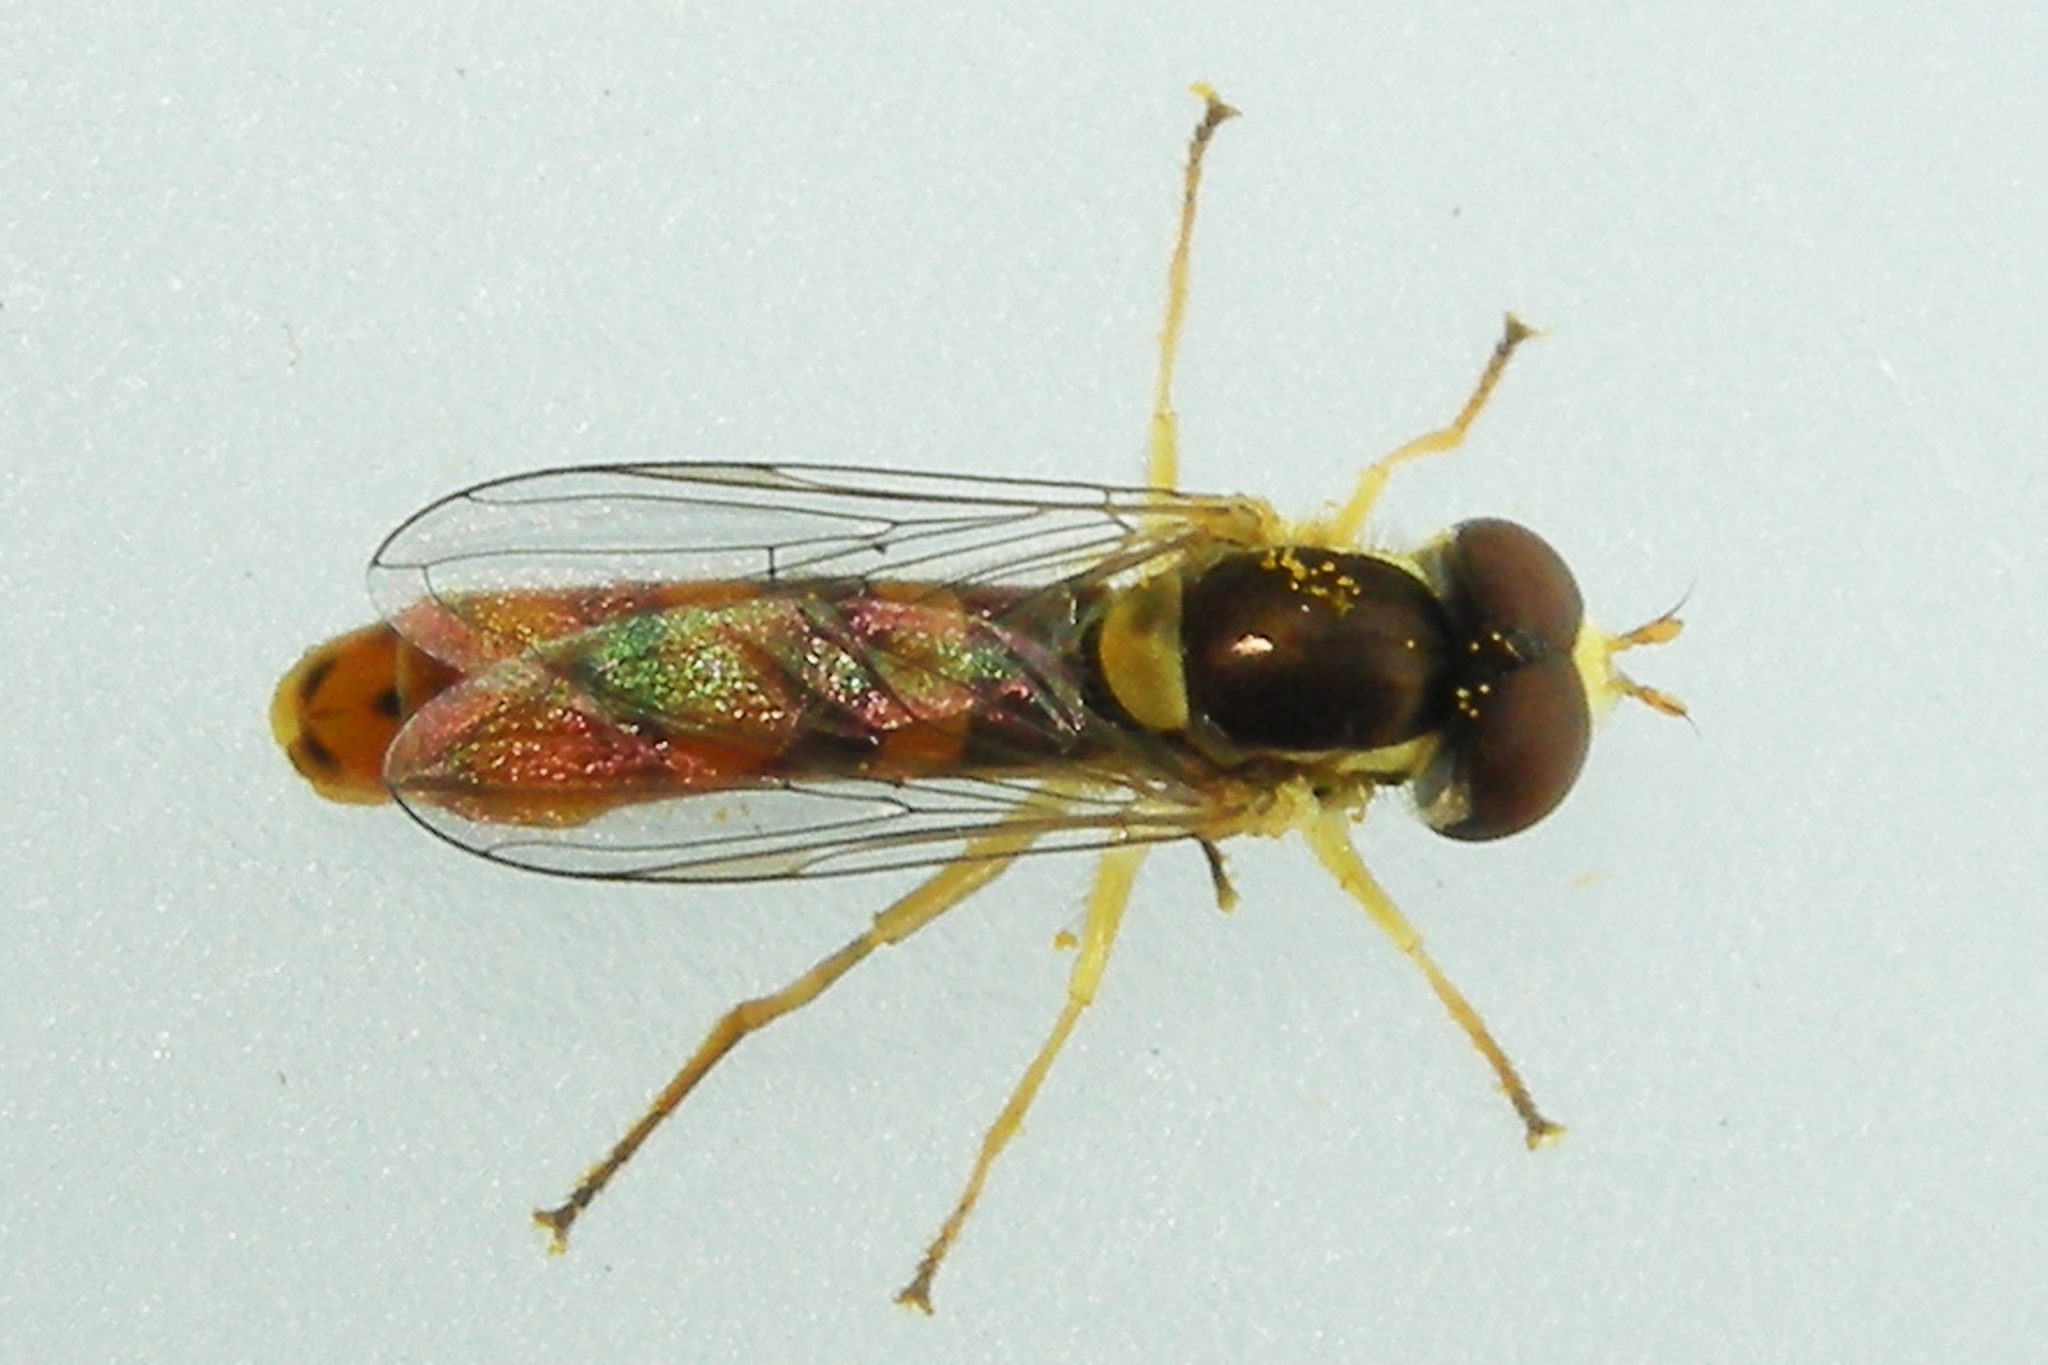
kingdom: Animalia
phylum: Arthropoda
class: Insecta
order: Diptera
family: Syrphidae
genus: Sphaerophoria
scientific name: Sphaerophoria philantha
